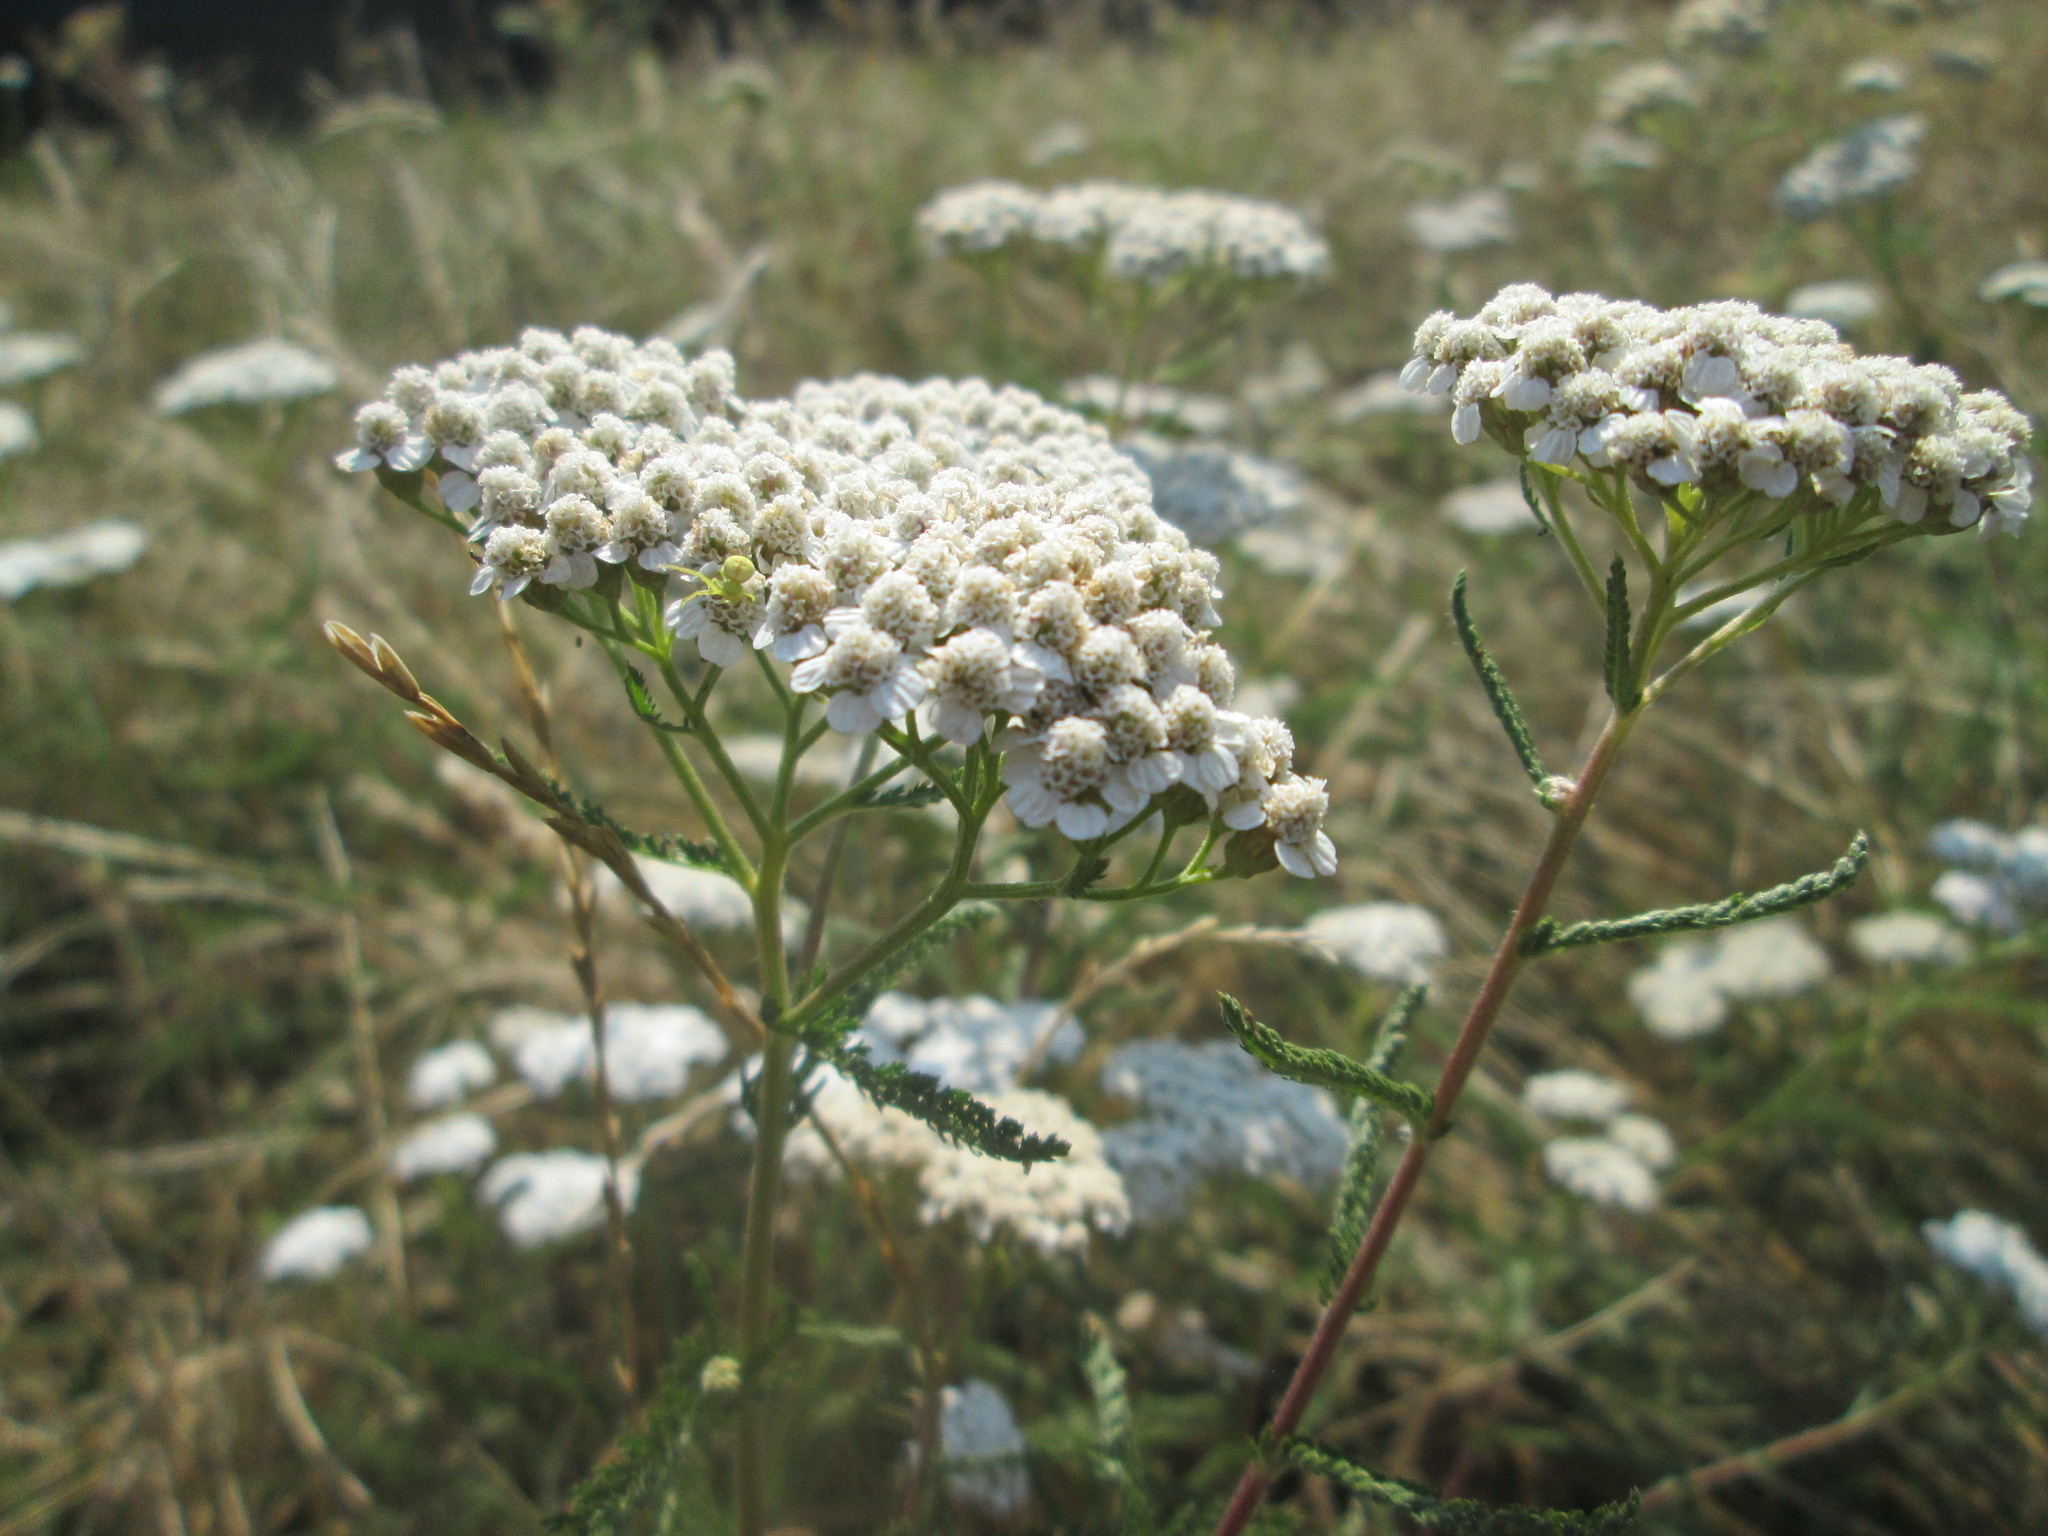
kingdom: Plantae
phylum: Tracheophyta
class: Magnoliopsida
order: Asterales
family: Asteraceae
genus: Achillea
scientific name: Achillea millefolium
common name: Yarrow
